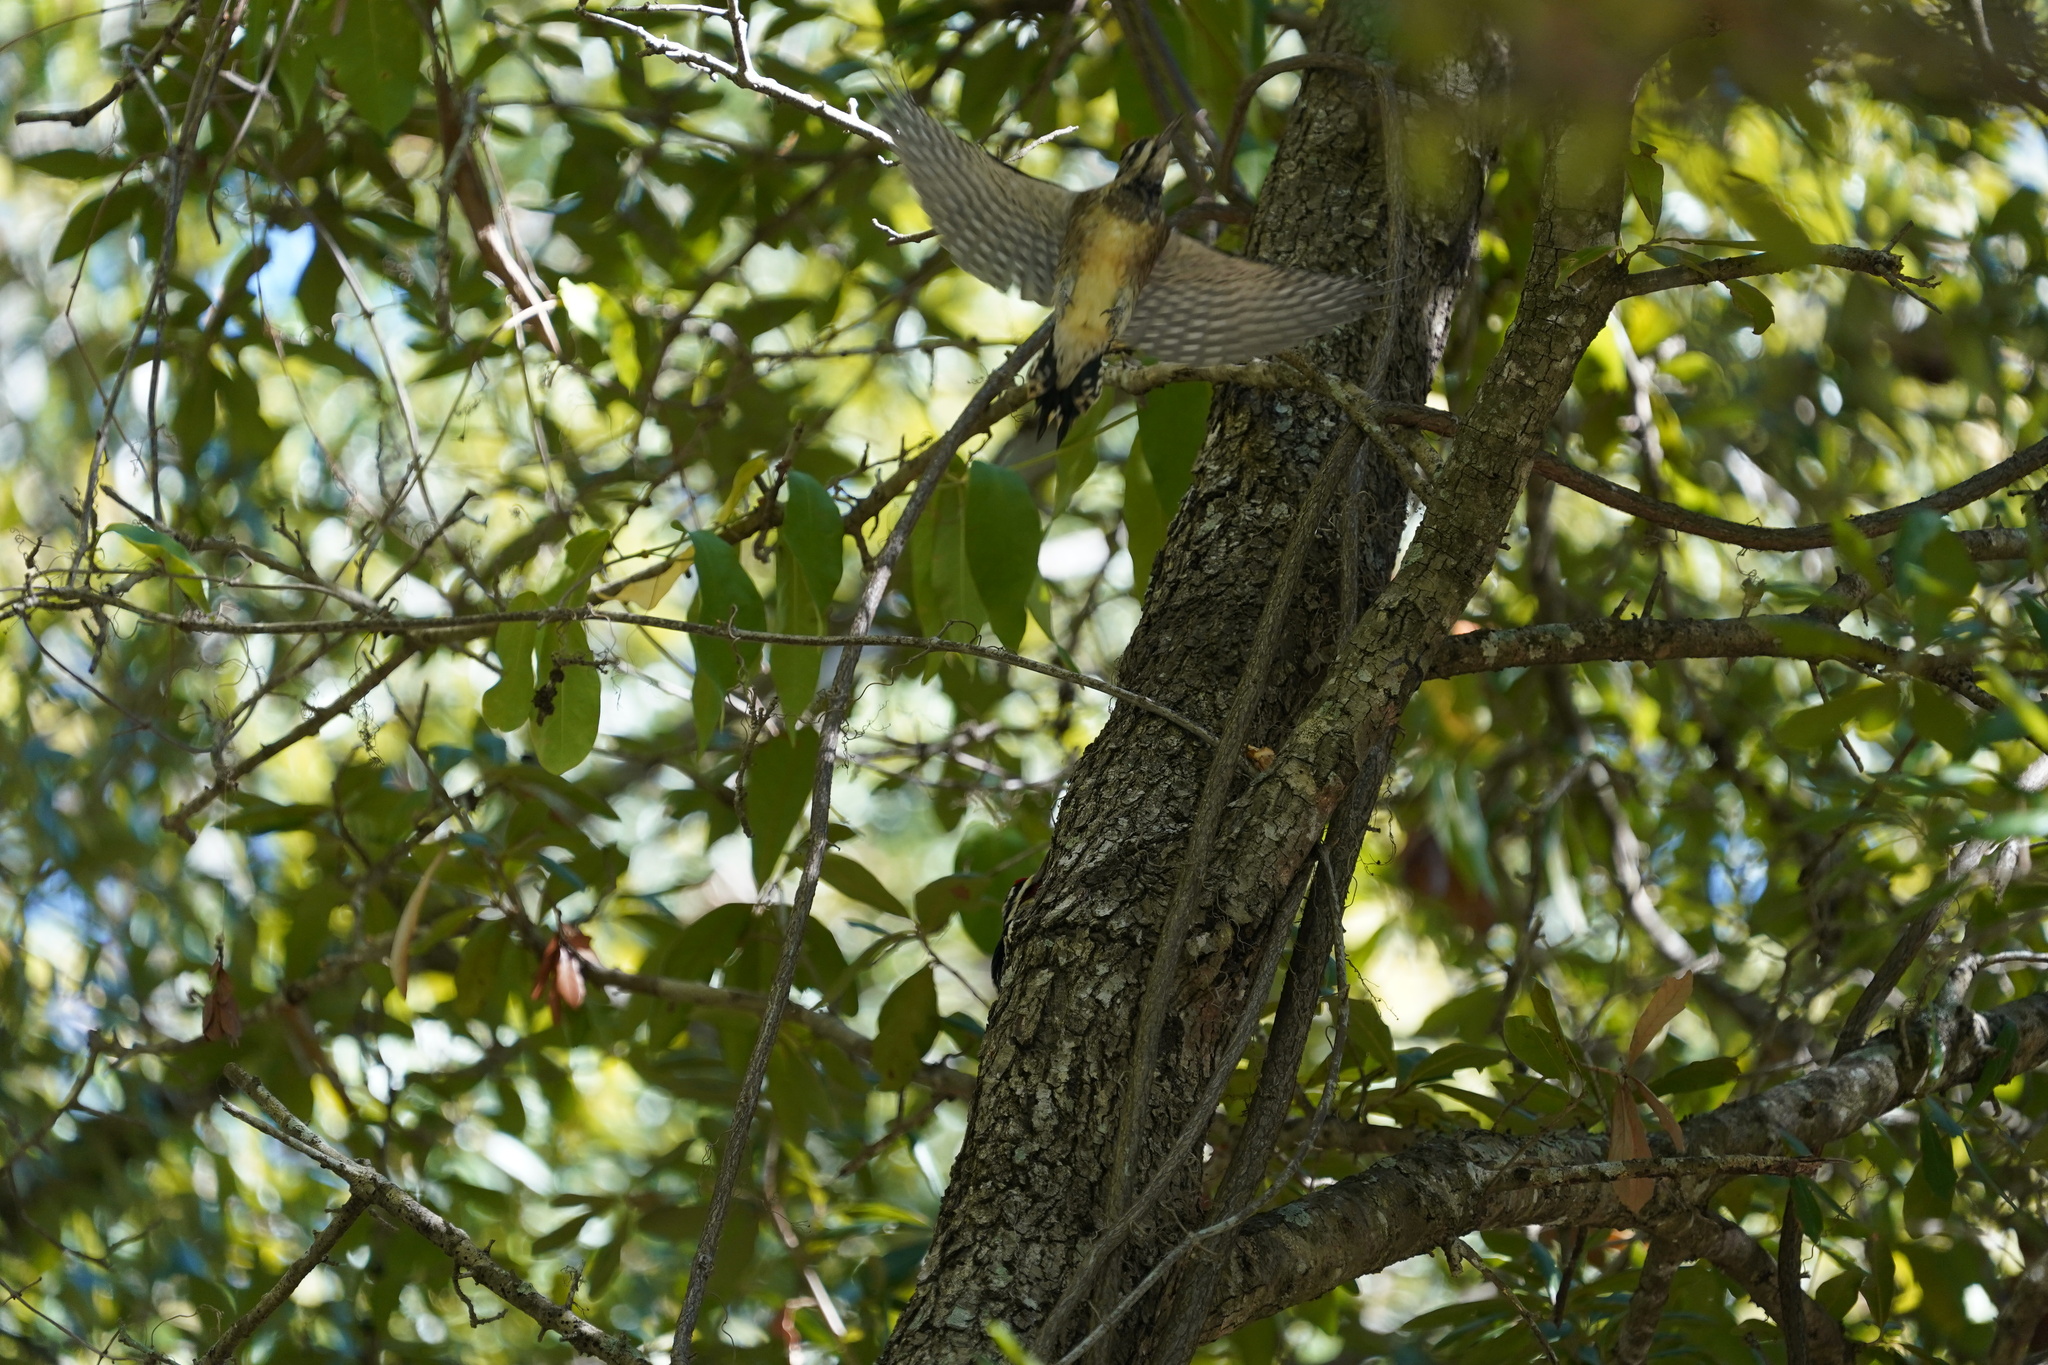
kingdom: Animalia
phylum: Chordata
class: Aves
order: Piciformes
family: Picidae
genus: Sphyrapicus
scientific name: Sphyrapicus varius
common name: Yellow-bellied sapsucker
